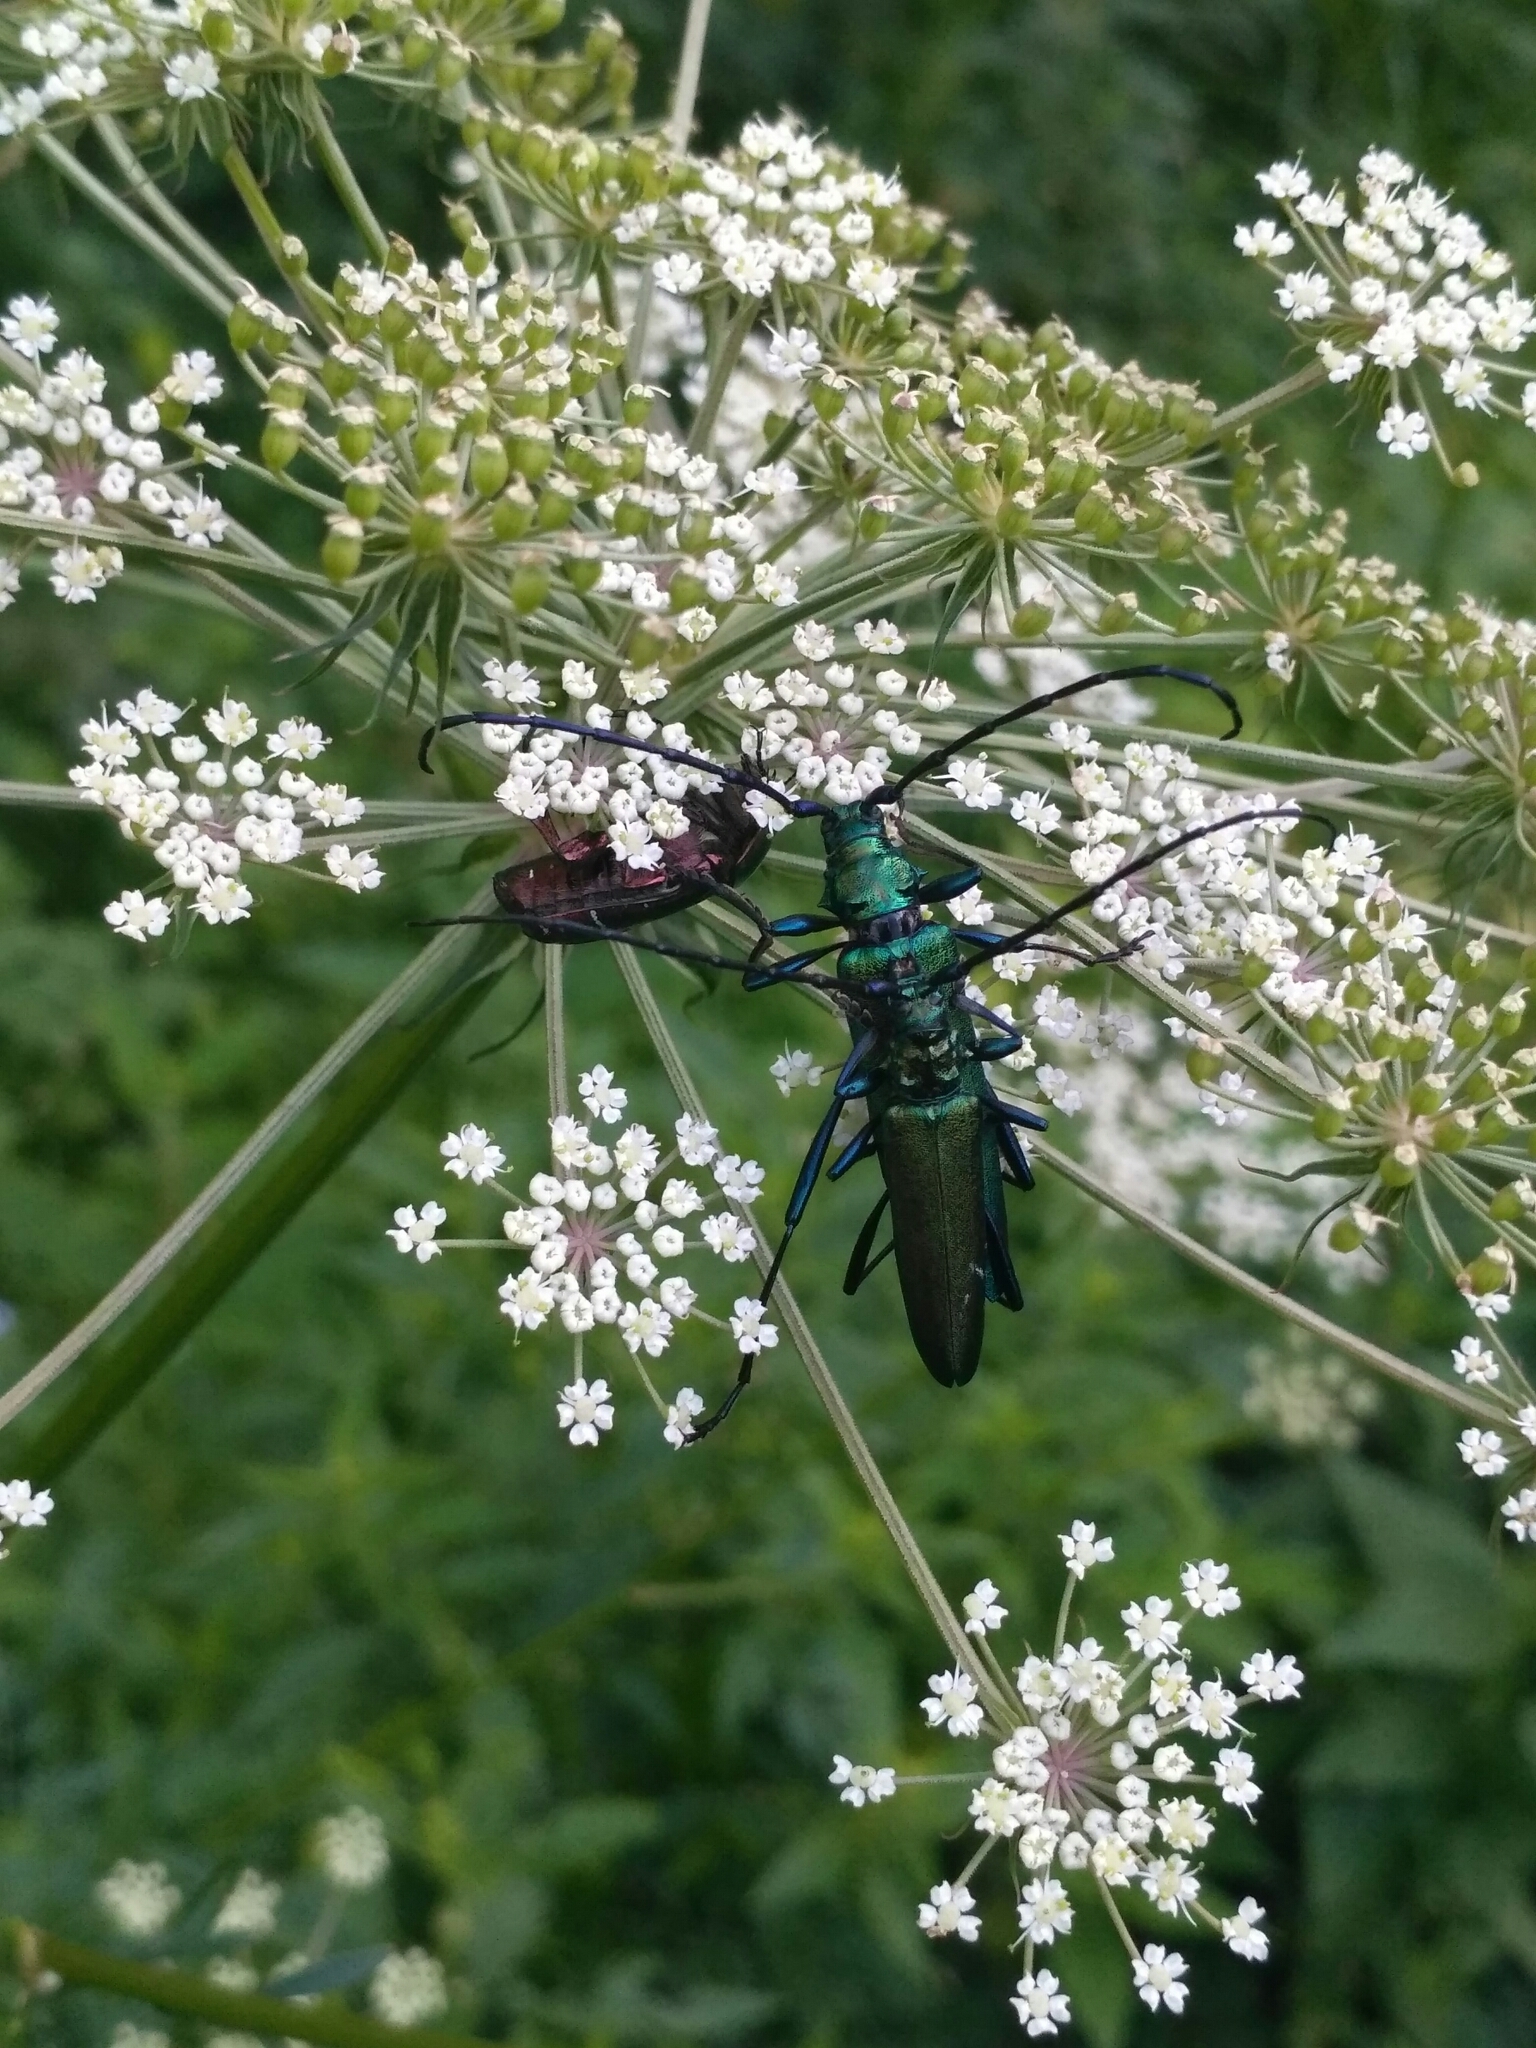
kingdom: Animalia
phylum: Arthropoda
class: Insecta
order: Coleoptera
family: Cerambycidae
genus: Aromia
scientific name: Aromia moschata
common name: Musk beetle
